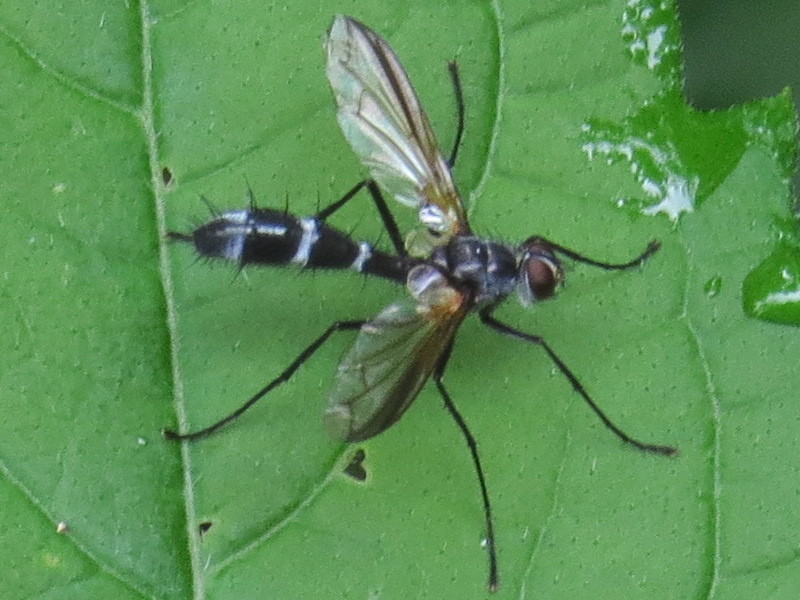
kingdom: Animalia
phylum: Arthropoda
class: Insecta
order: Diptera
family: Tachinidae
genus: Cordyligaster
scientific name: Cordyligaster septentrionalis
